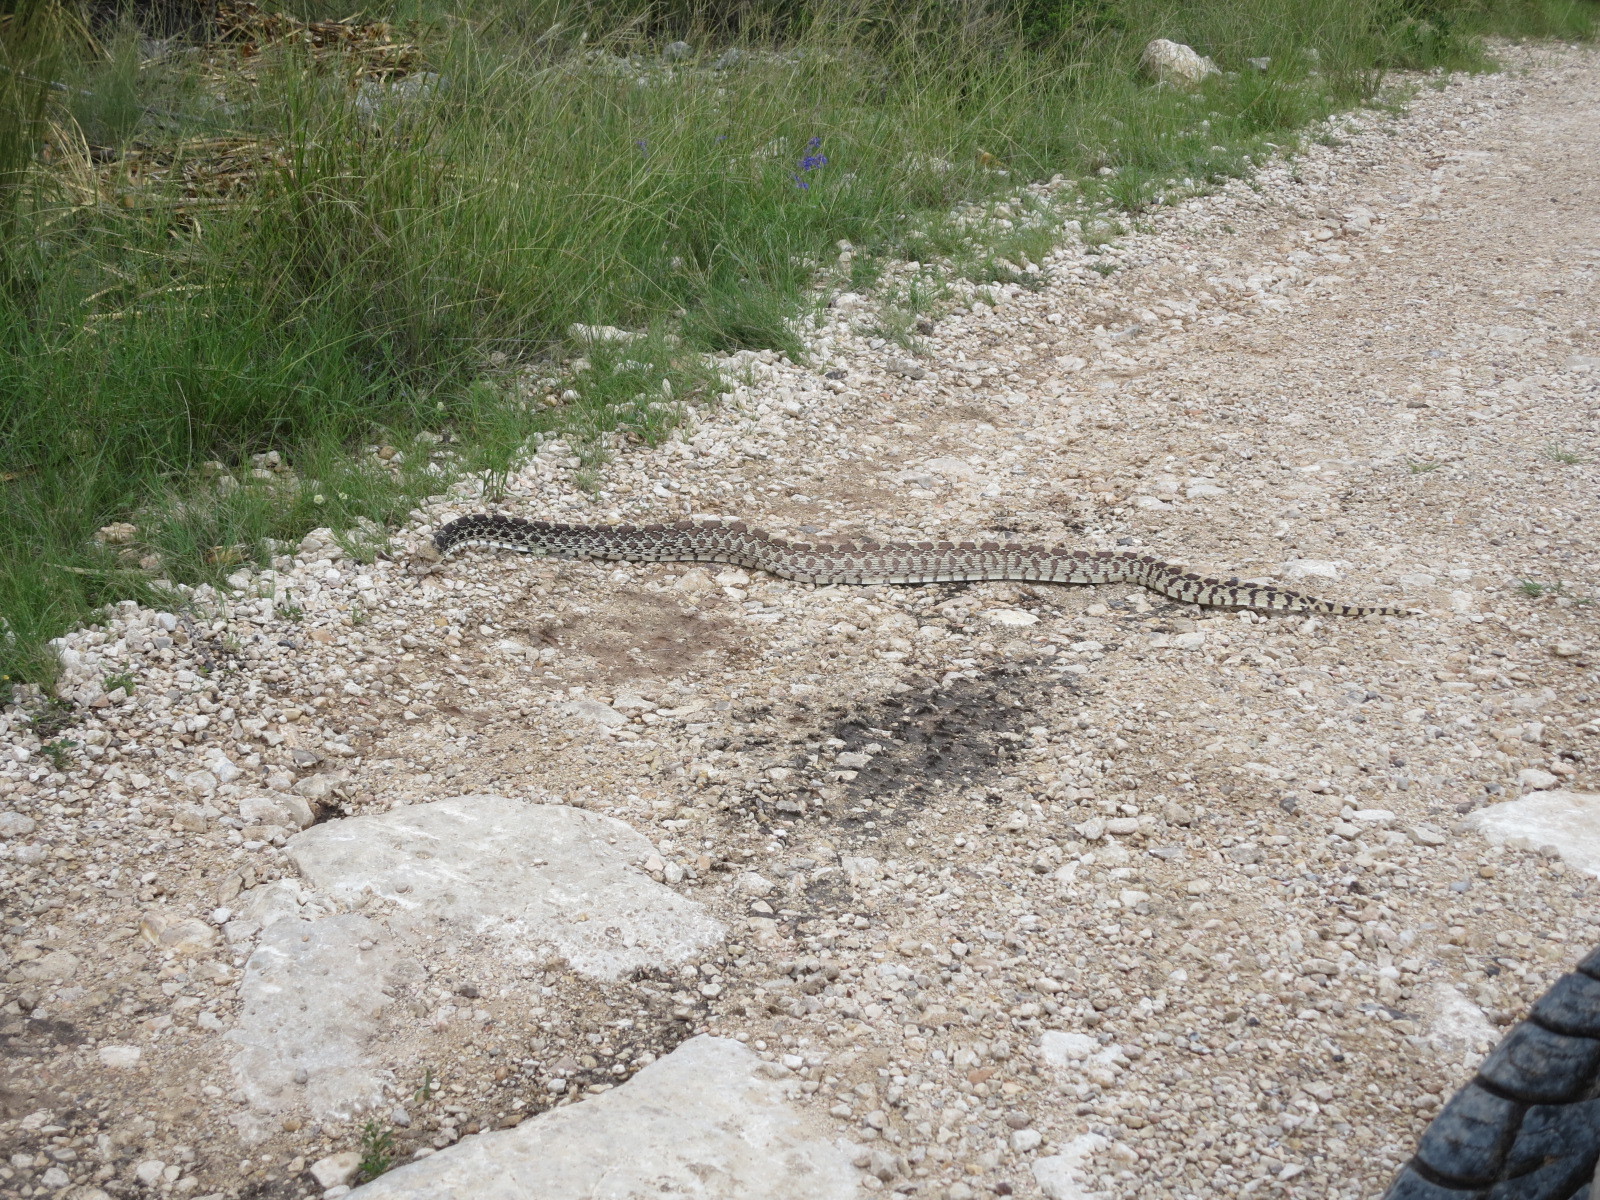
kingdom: Animalia
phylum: Chordata
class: Squamata
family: Colubridae
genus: Pituophis
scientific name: Pituophis catenifer
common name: Gopher snake
